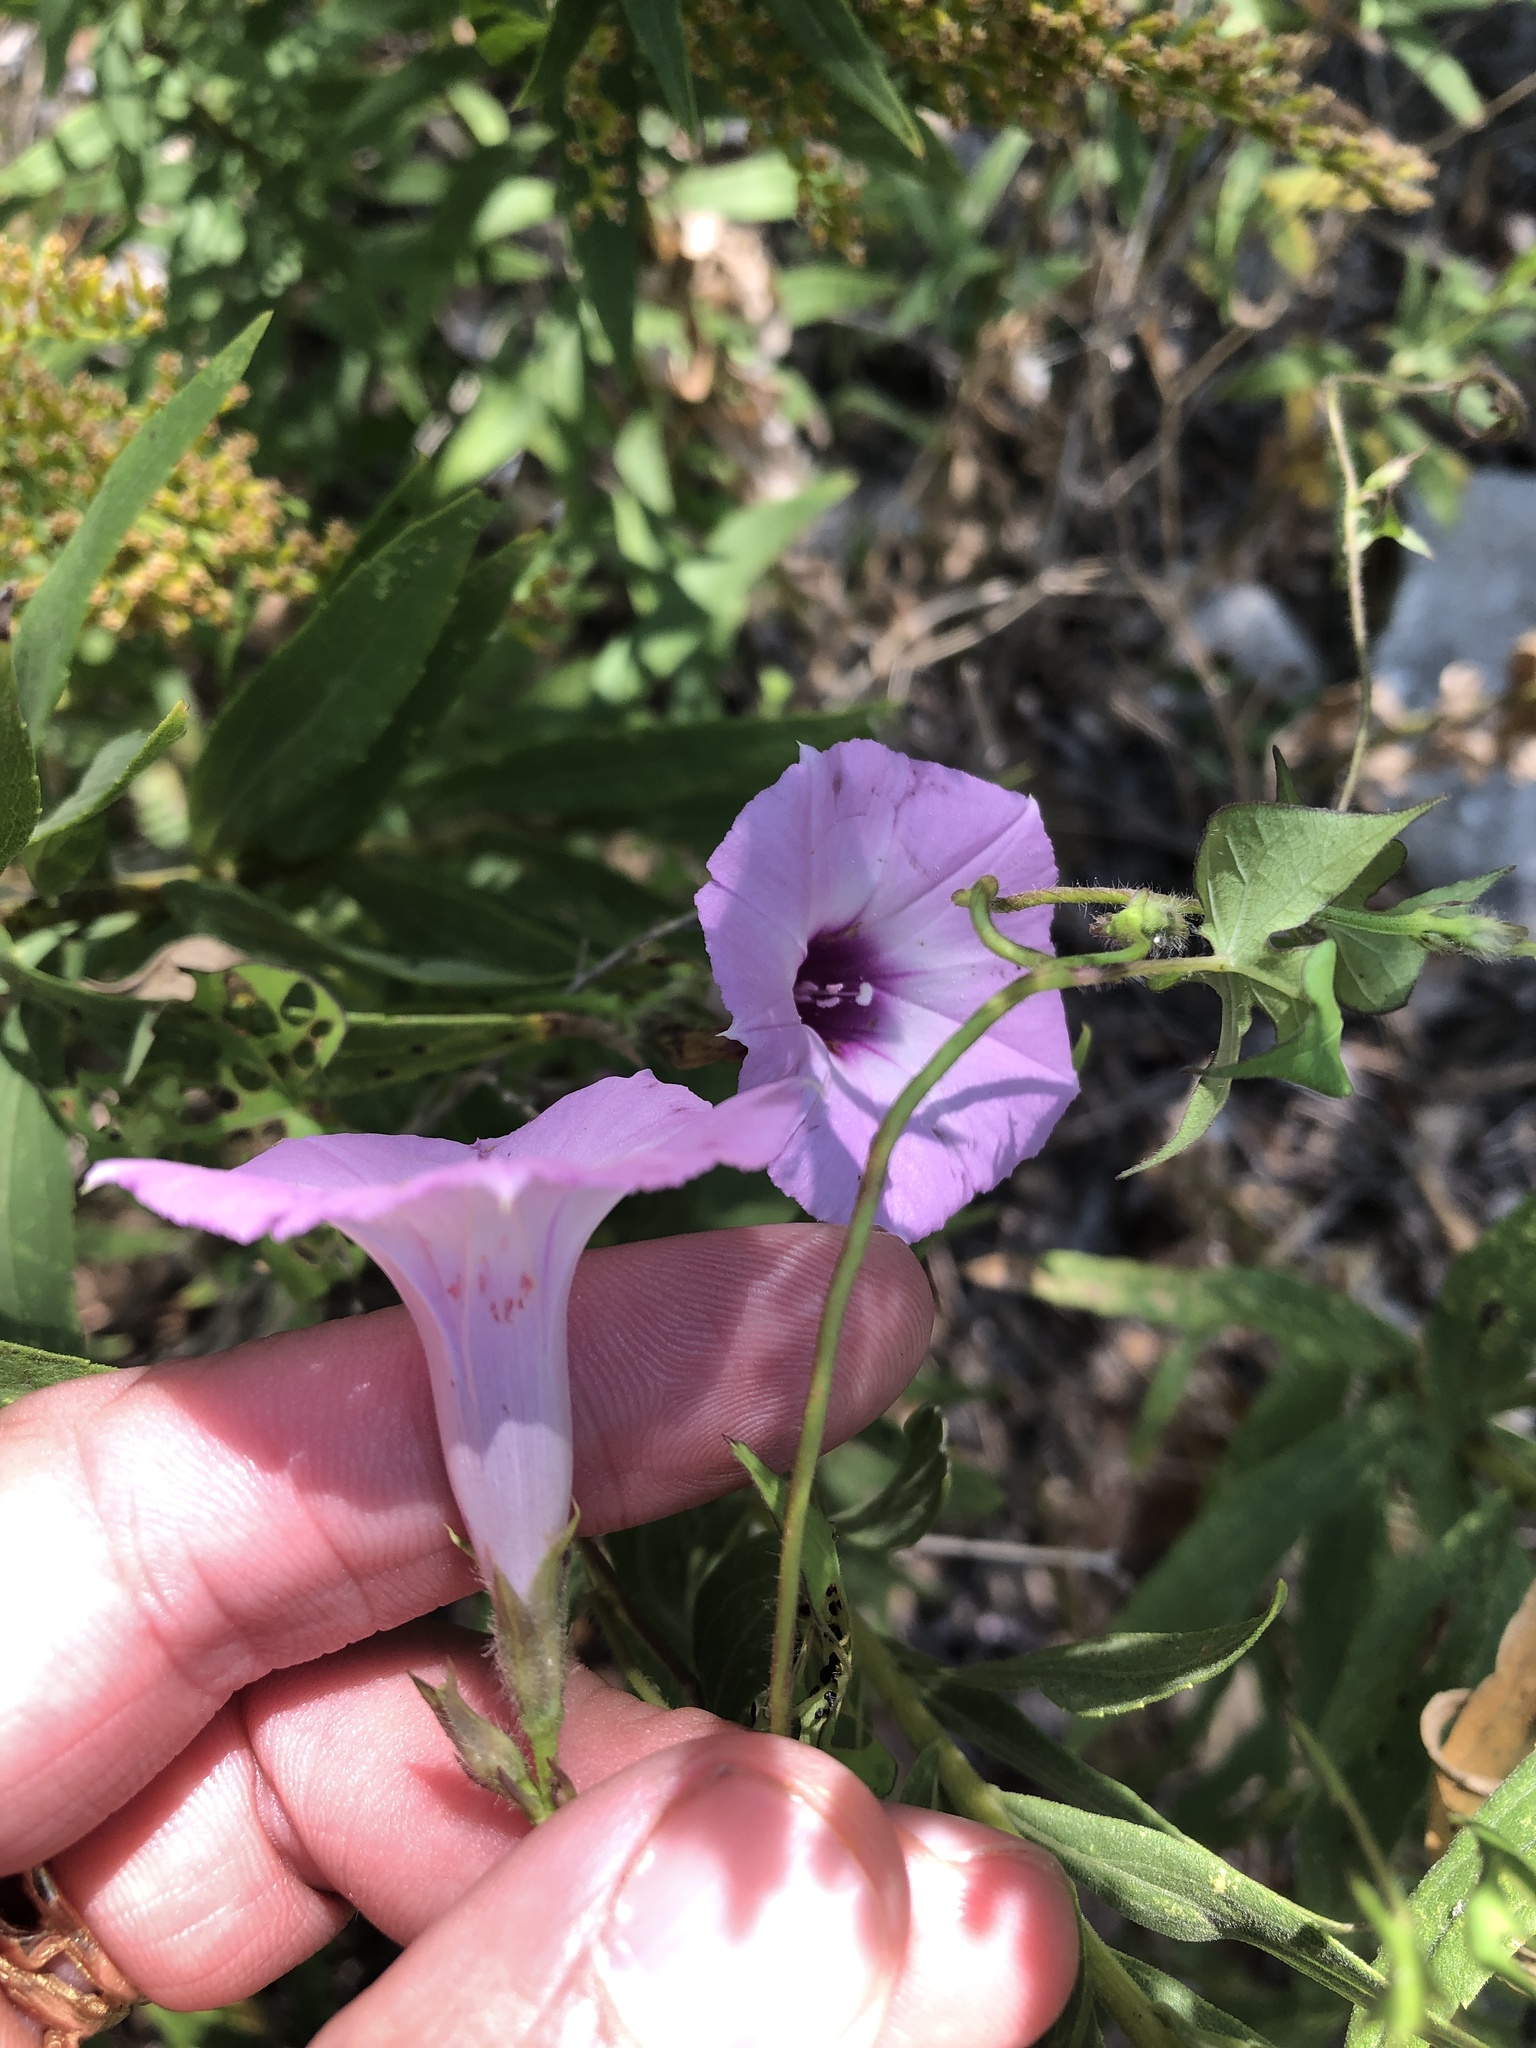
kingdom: Plantae
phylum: Tracheophyta
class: Magnoliopsida
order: Solanales
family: Convolvulaceae
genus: Ipomoea
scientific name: Ipomoea cordatotriloba
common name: Cotton morning glory
